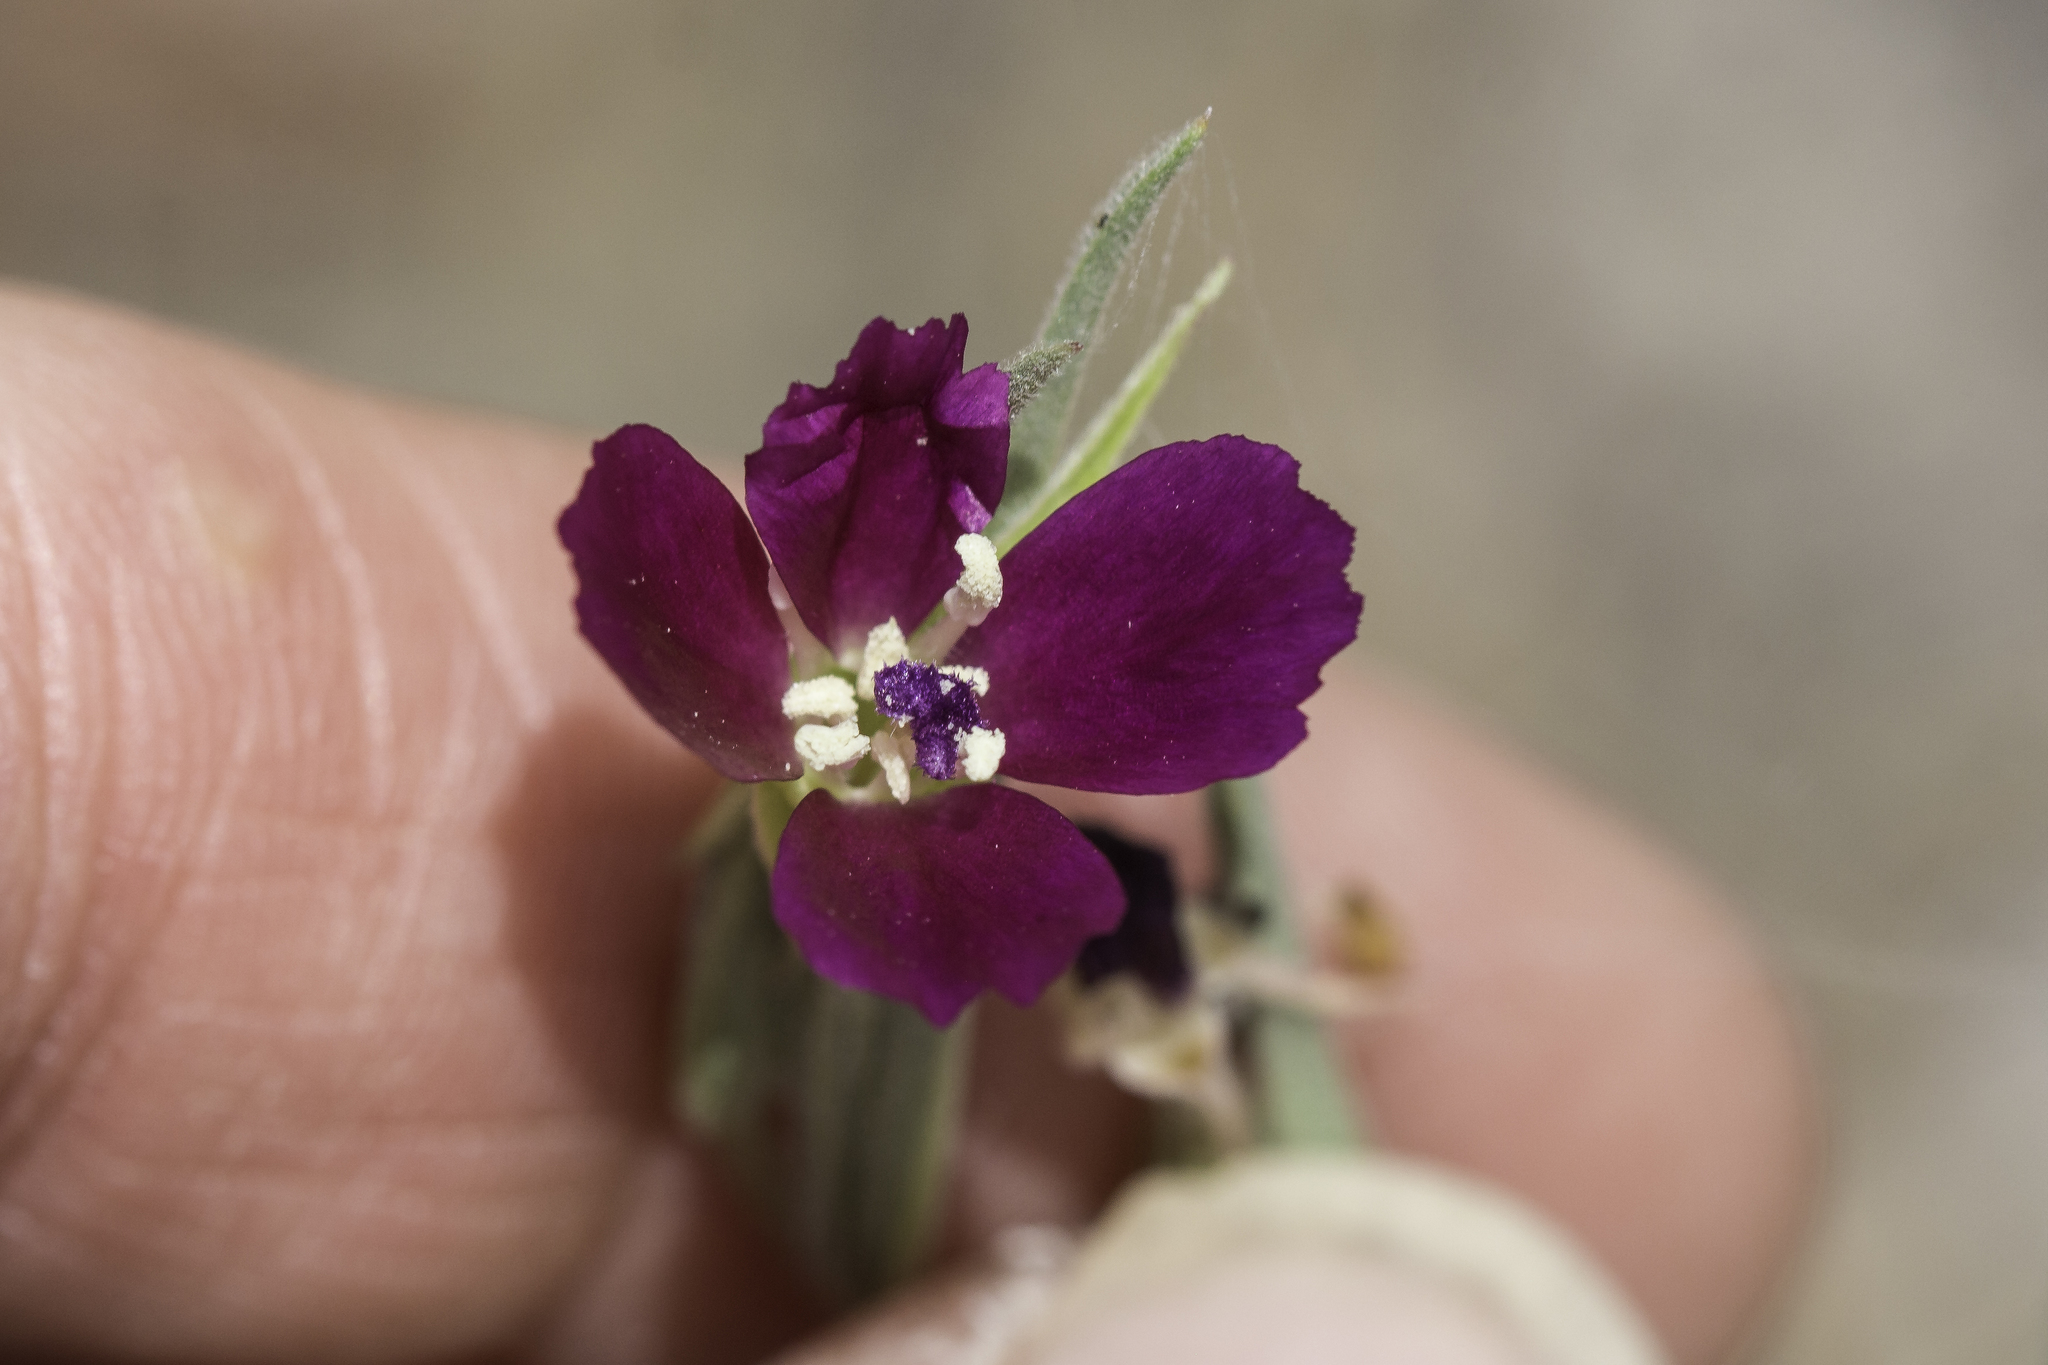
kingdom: Plantae
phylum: Tracheophyta
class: Magnoliopsida
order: Myrtales
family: Onagraceae
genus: Clarkia
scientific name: Clarkia purpurea
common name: Purple clarkia
